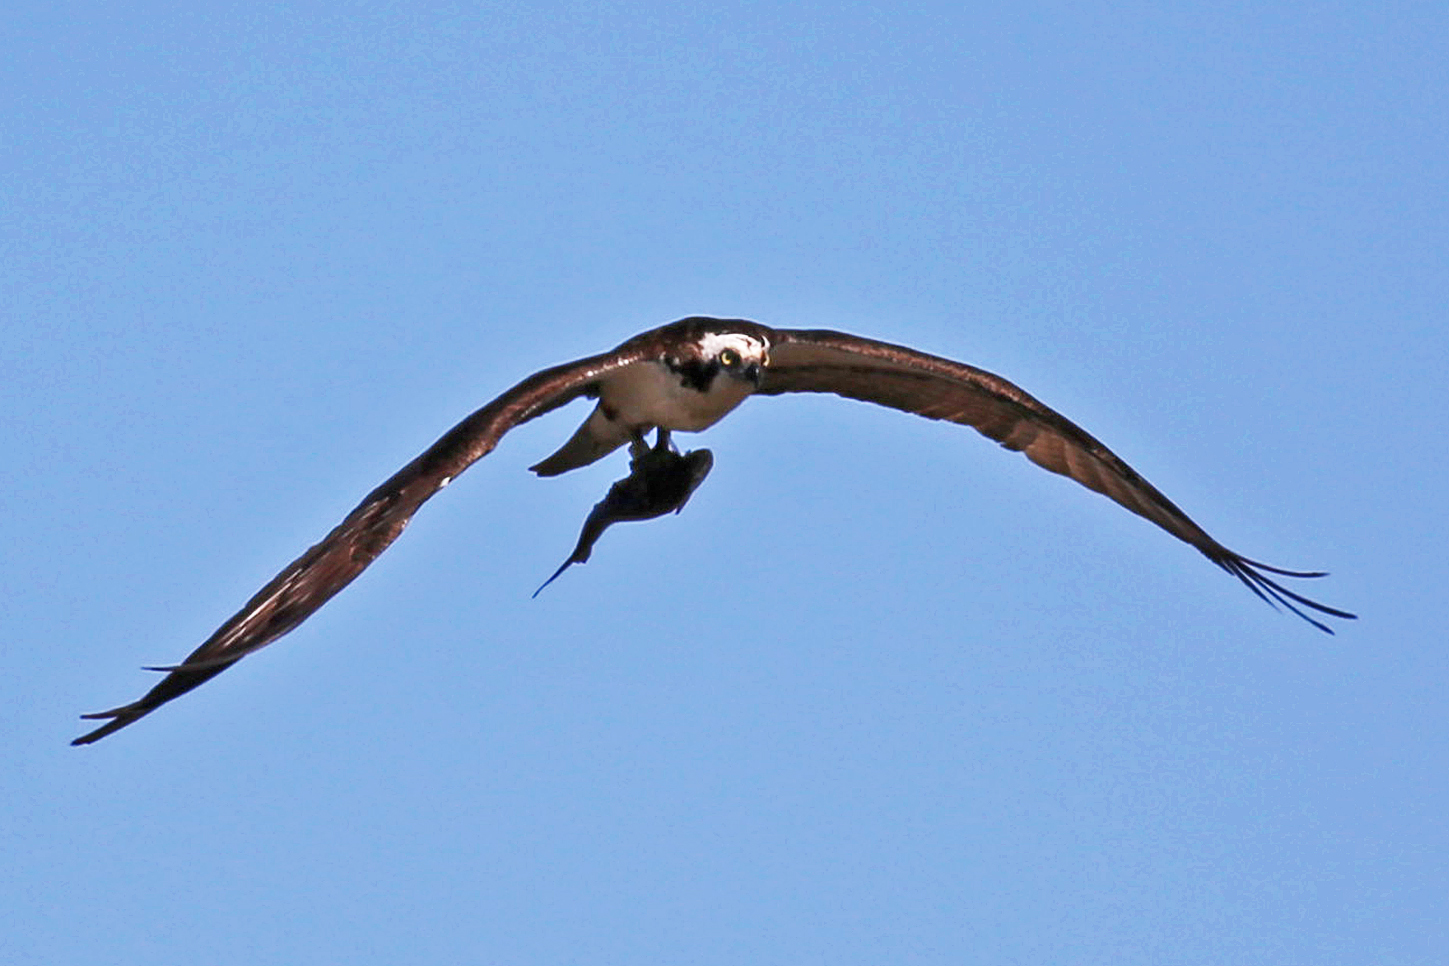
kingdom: Animalia
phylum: Chordata
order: Clupeiformes
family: Clupeidae
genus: Brevoortia
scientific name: Brevoortia tyrannus
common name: Atlantic menhaden
